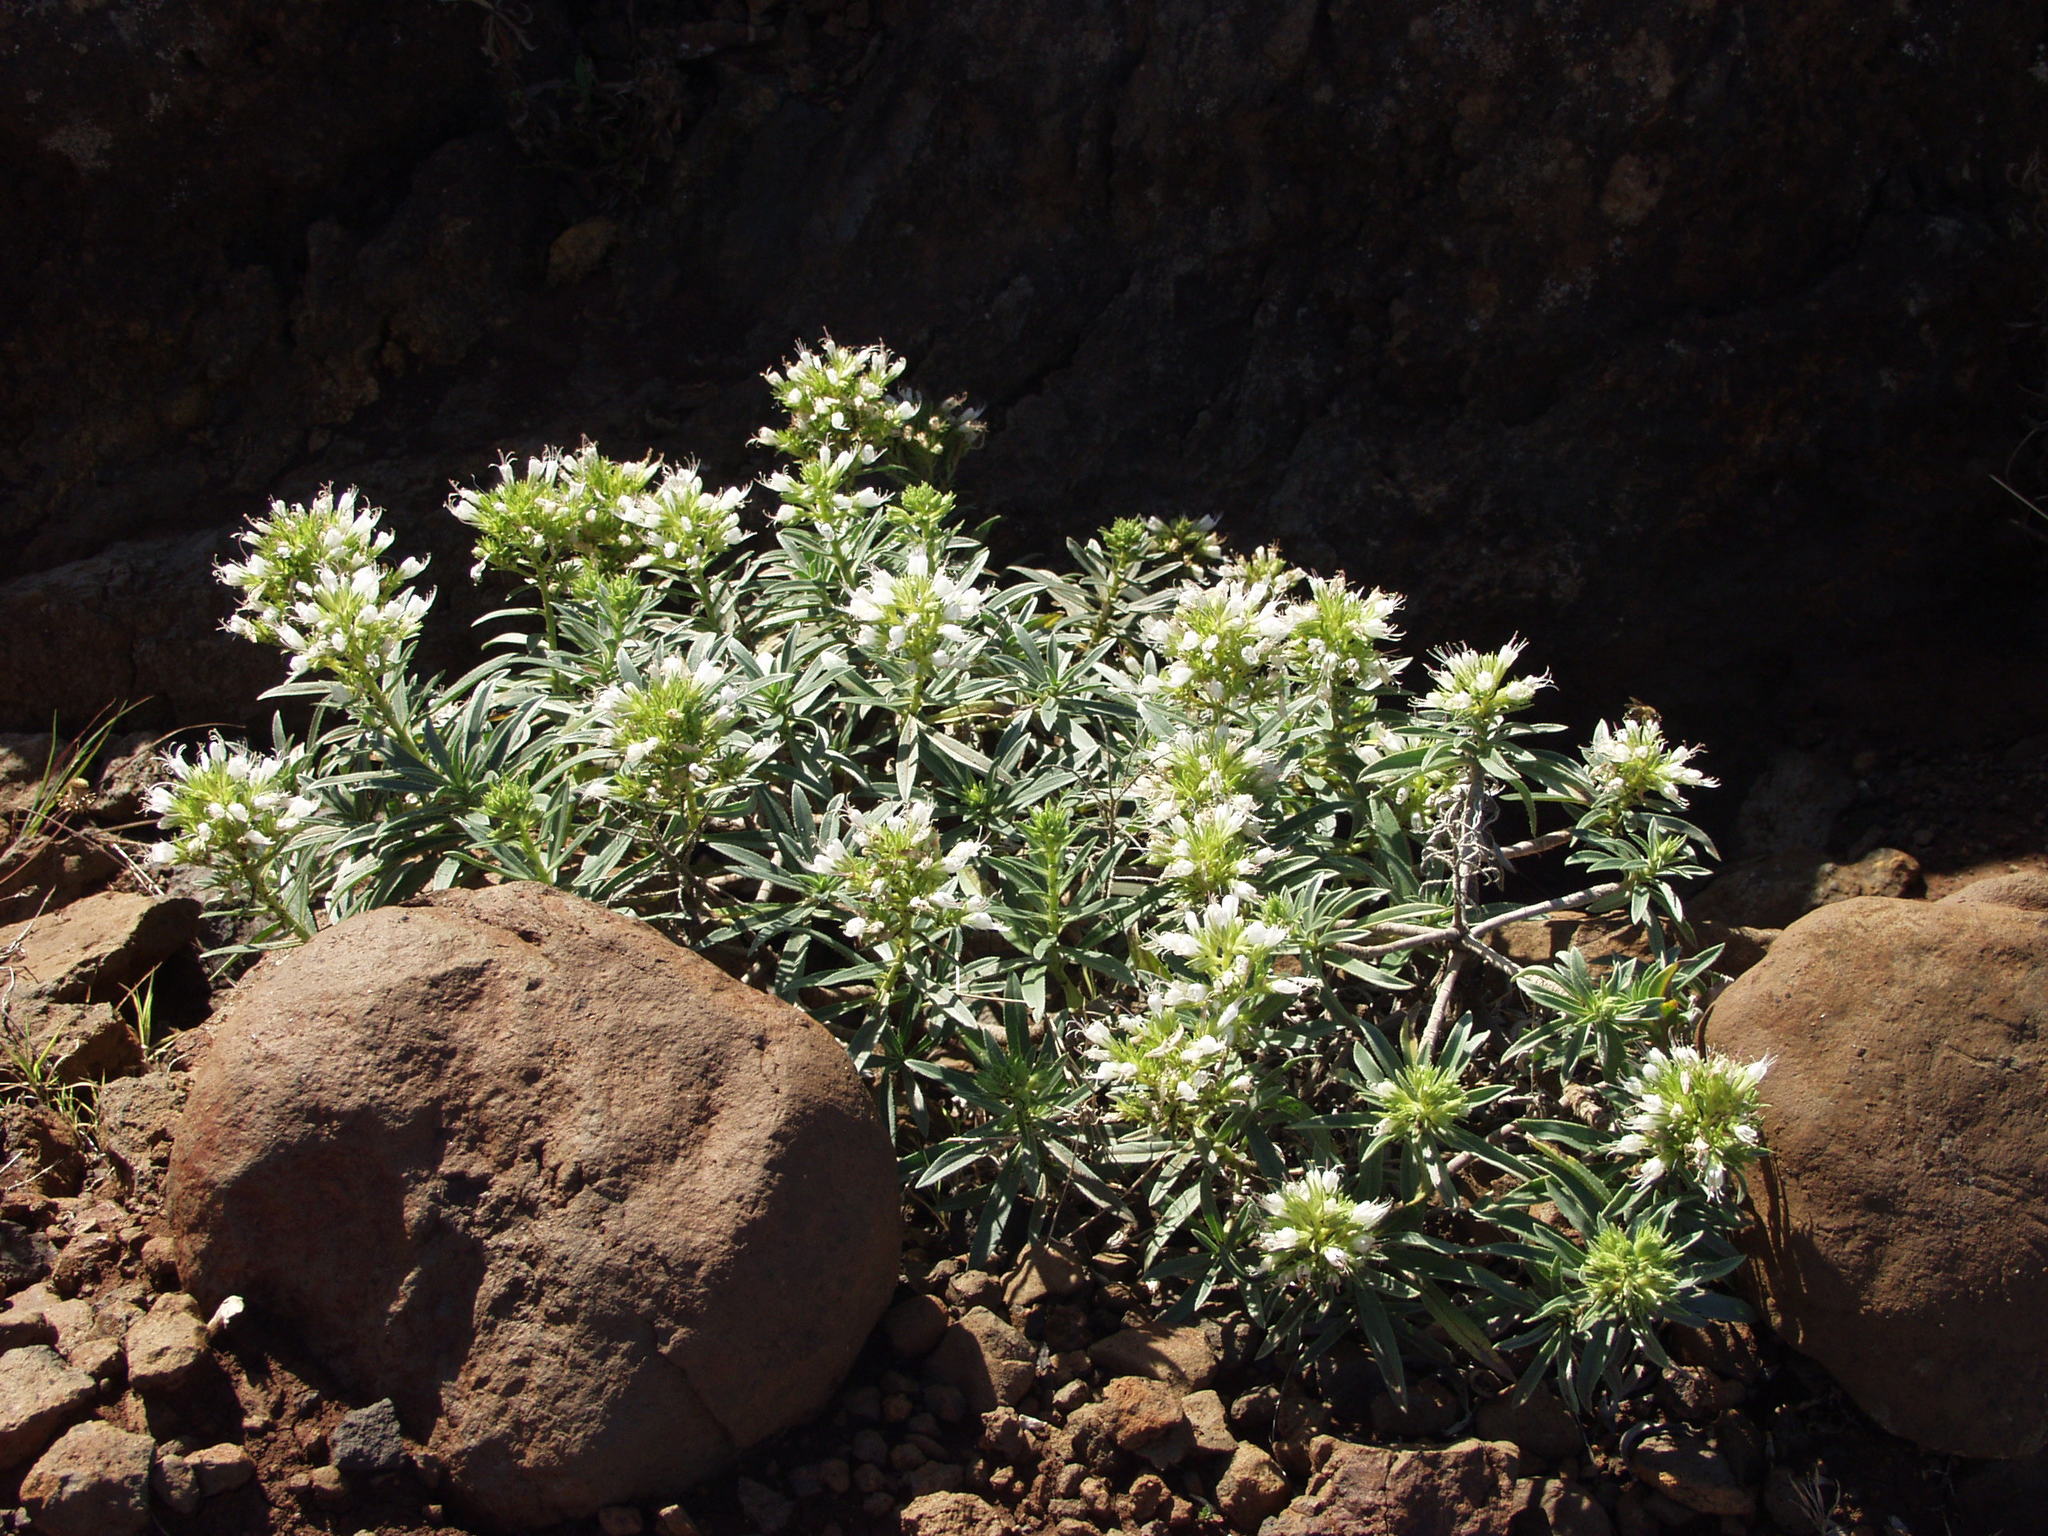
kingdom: Plantae
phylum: Tracheophyta
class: Magnoliopsida
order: Boraginales
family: Boraginaceae
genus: Echium
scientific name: Echium brevirame
